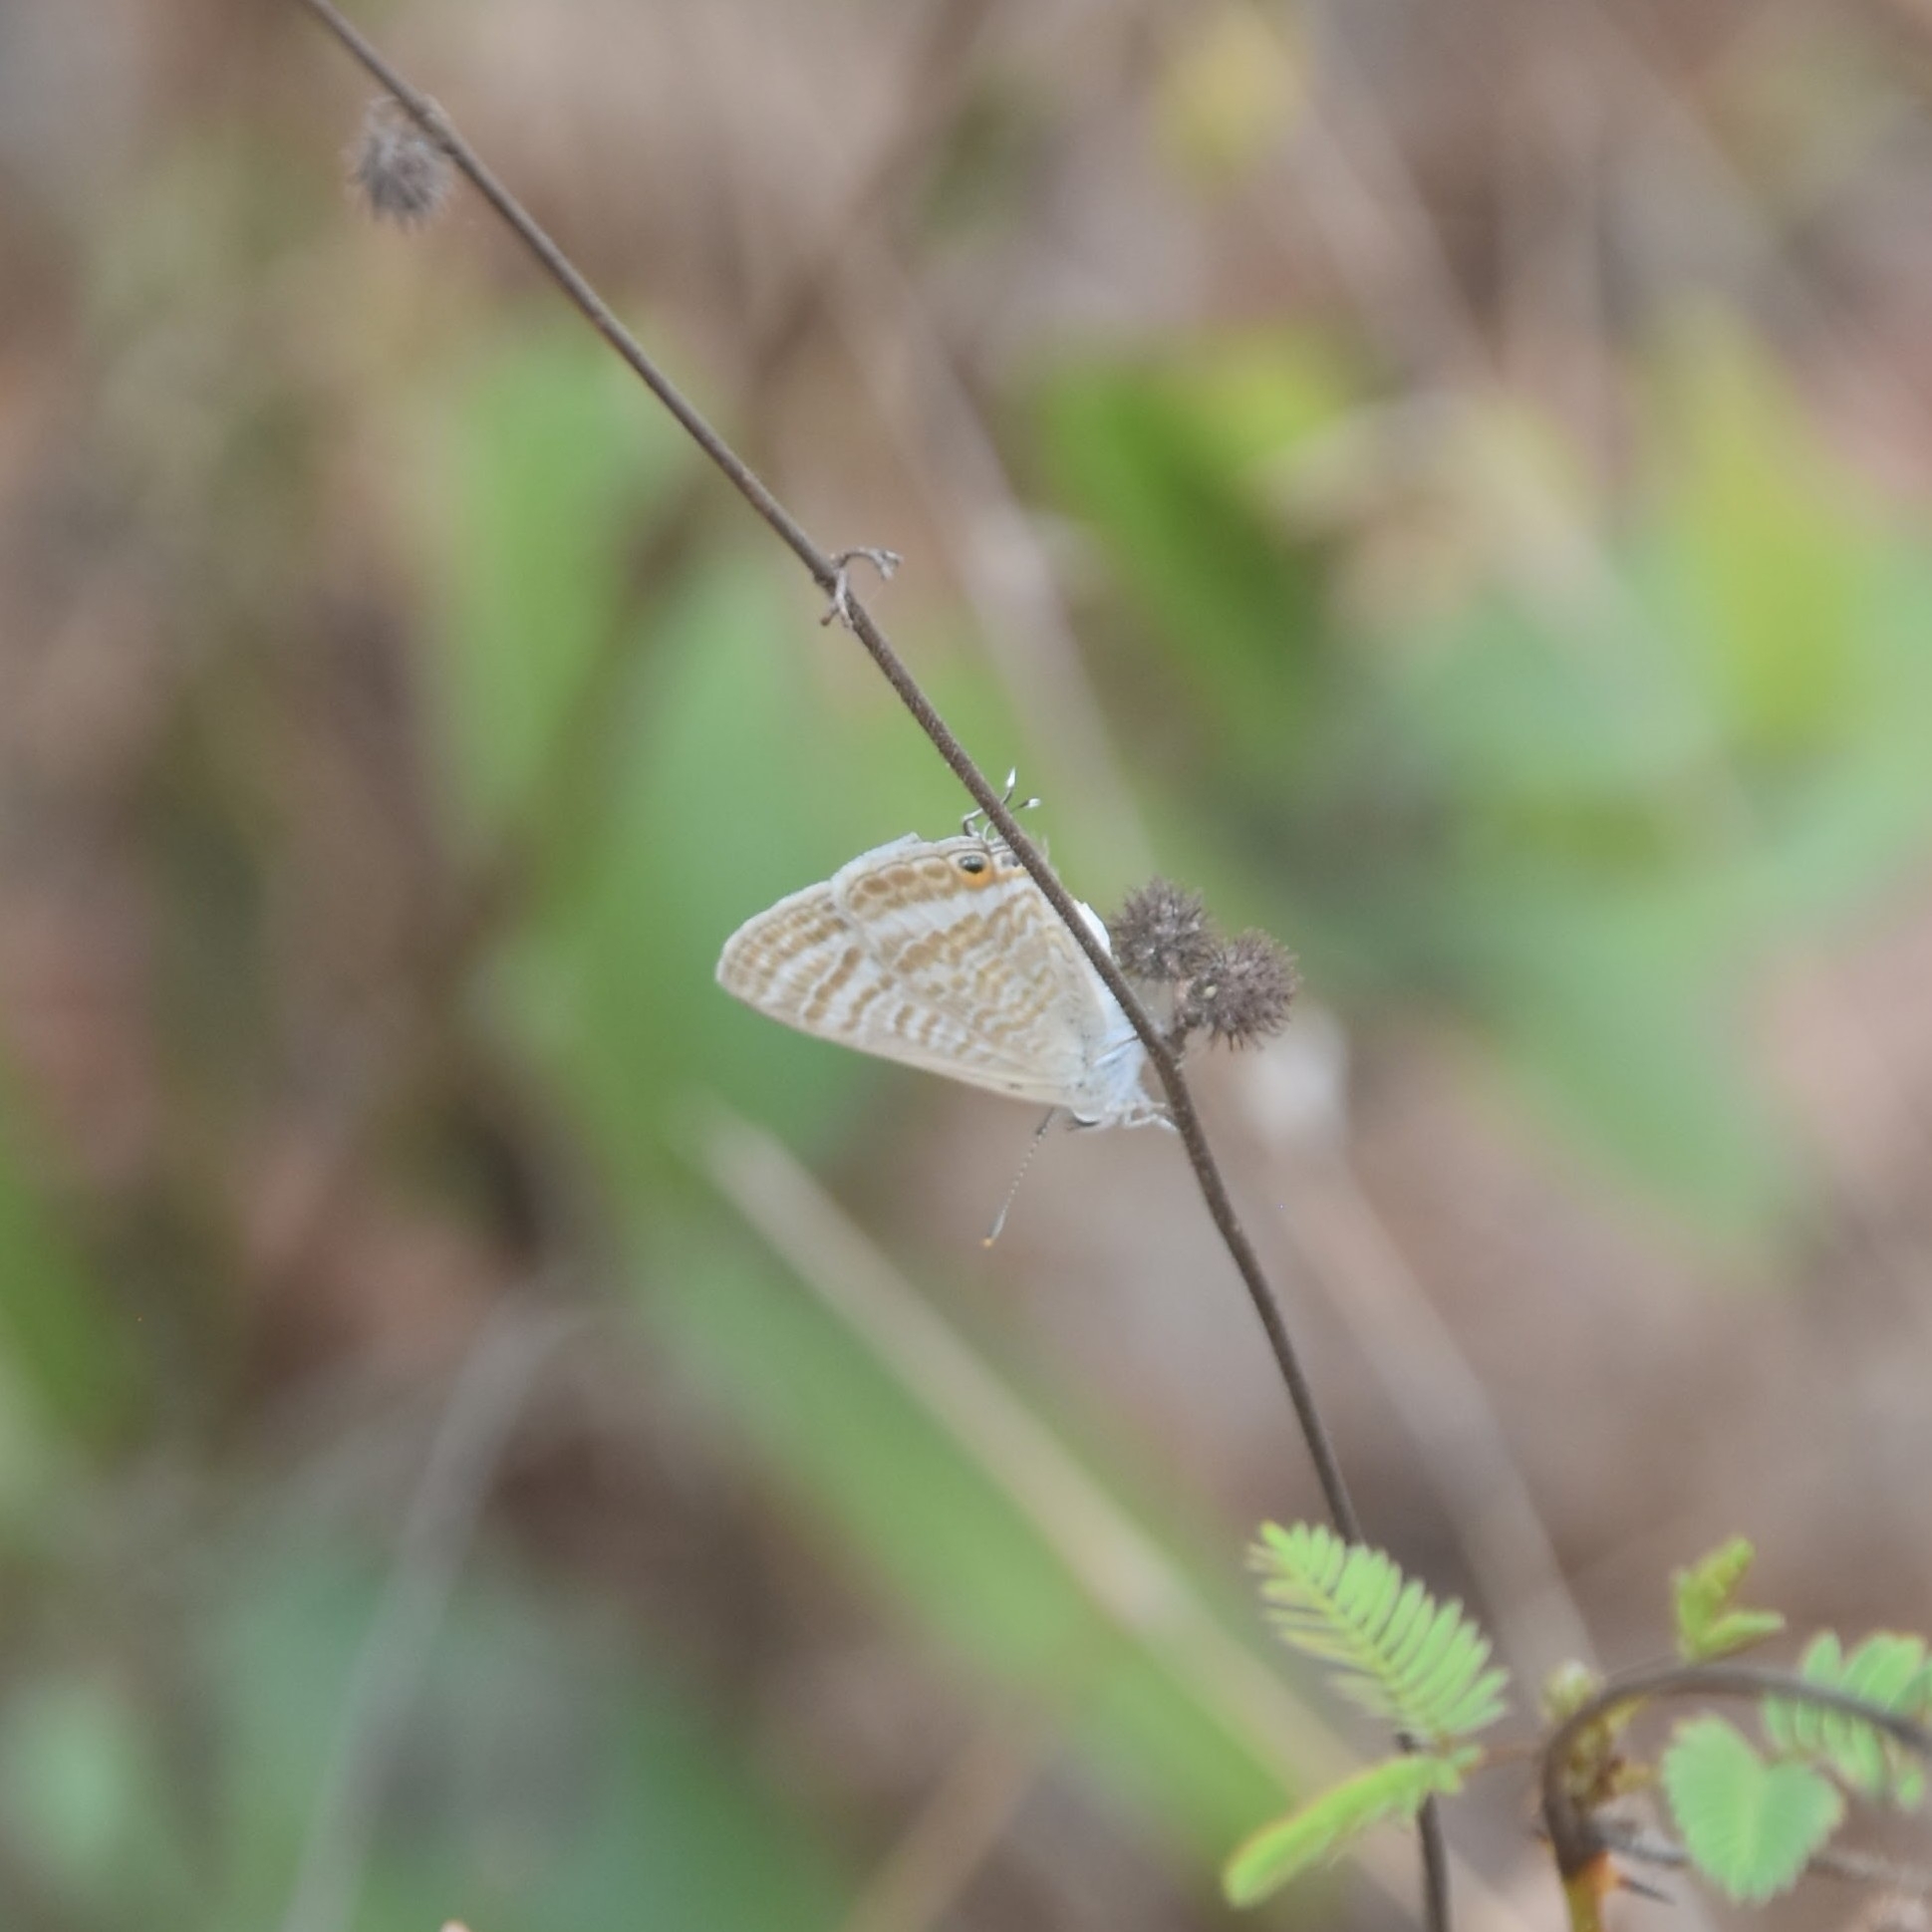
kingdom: Animalia
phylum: Arthropoda
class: Insecta
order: Lepidoptera
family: Lycaenidae
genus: Lampides
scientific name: Lampides boeticus
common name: Long-tailed blue
